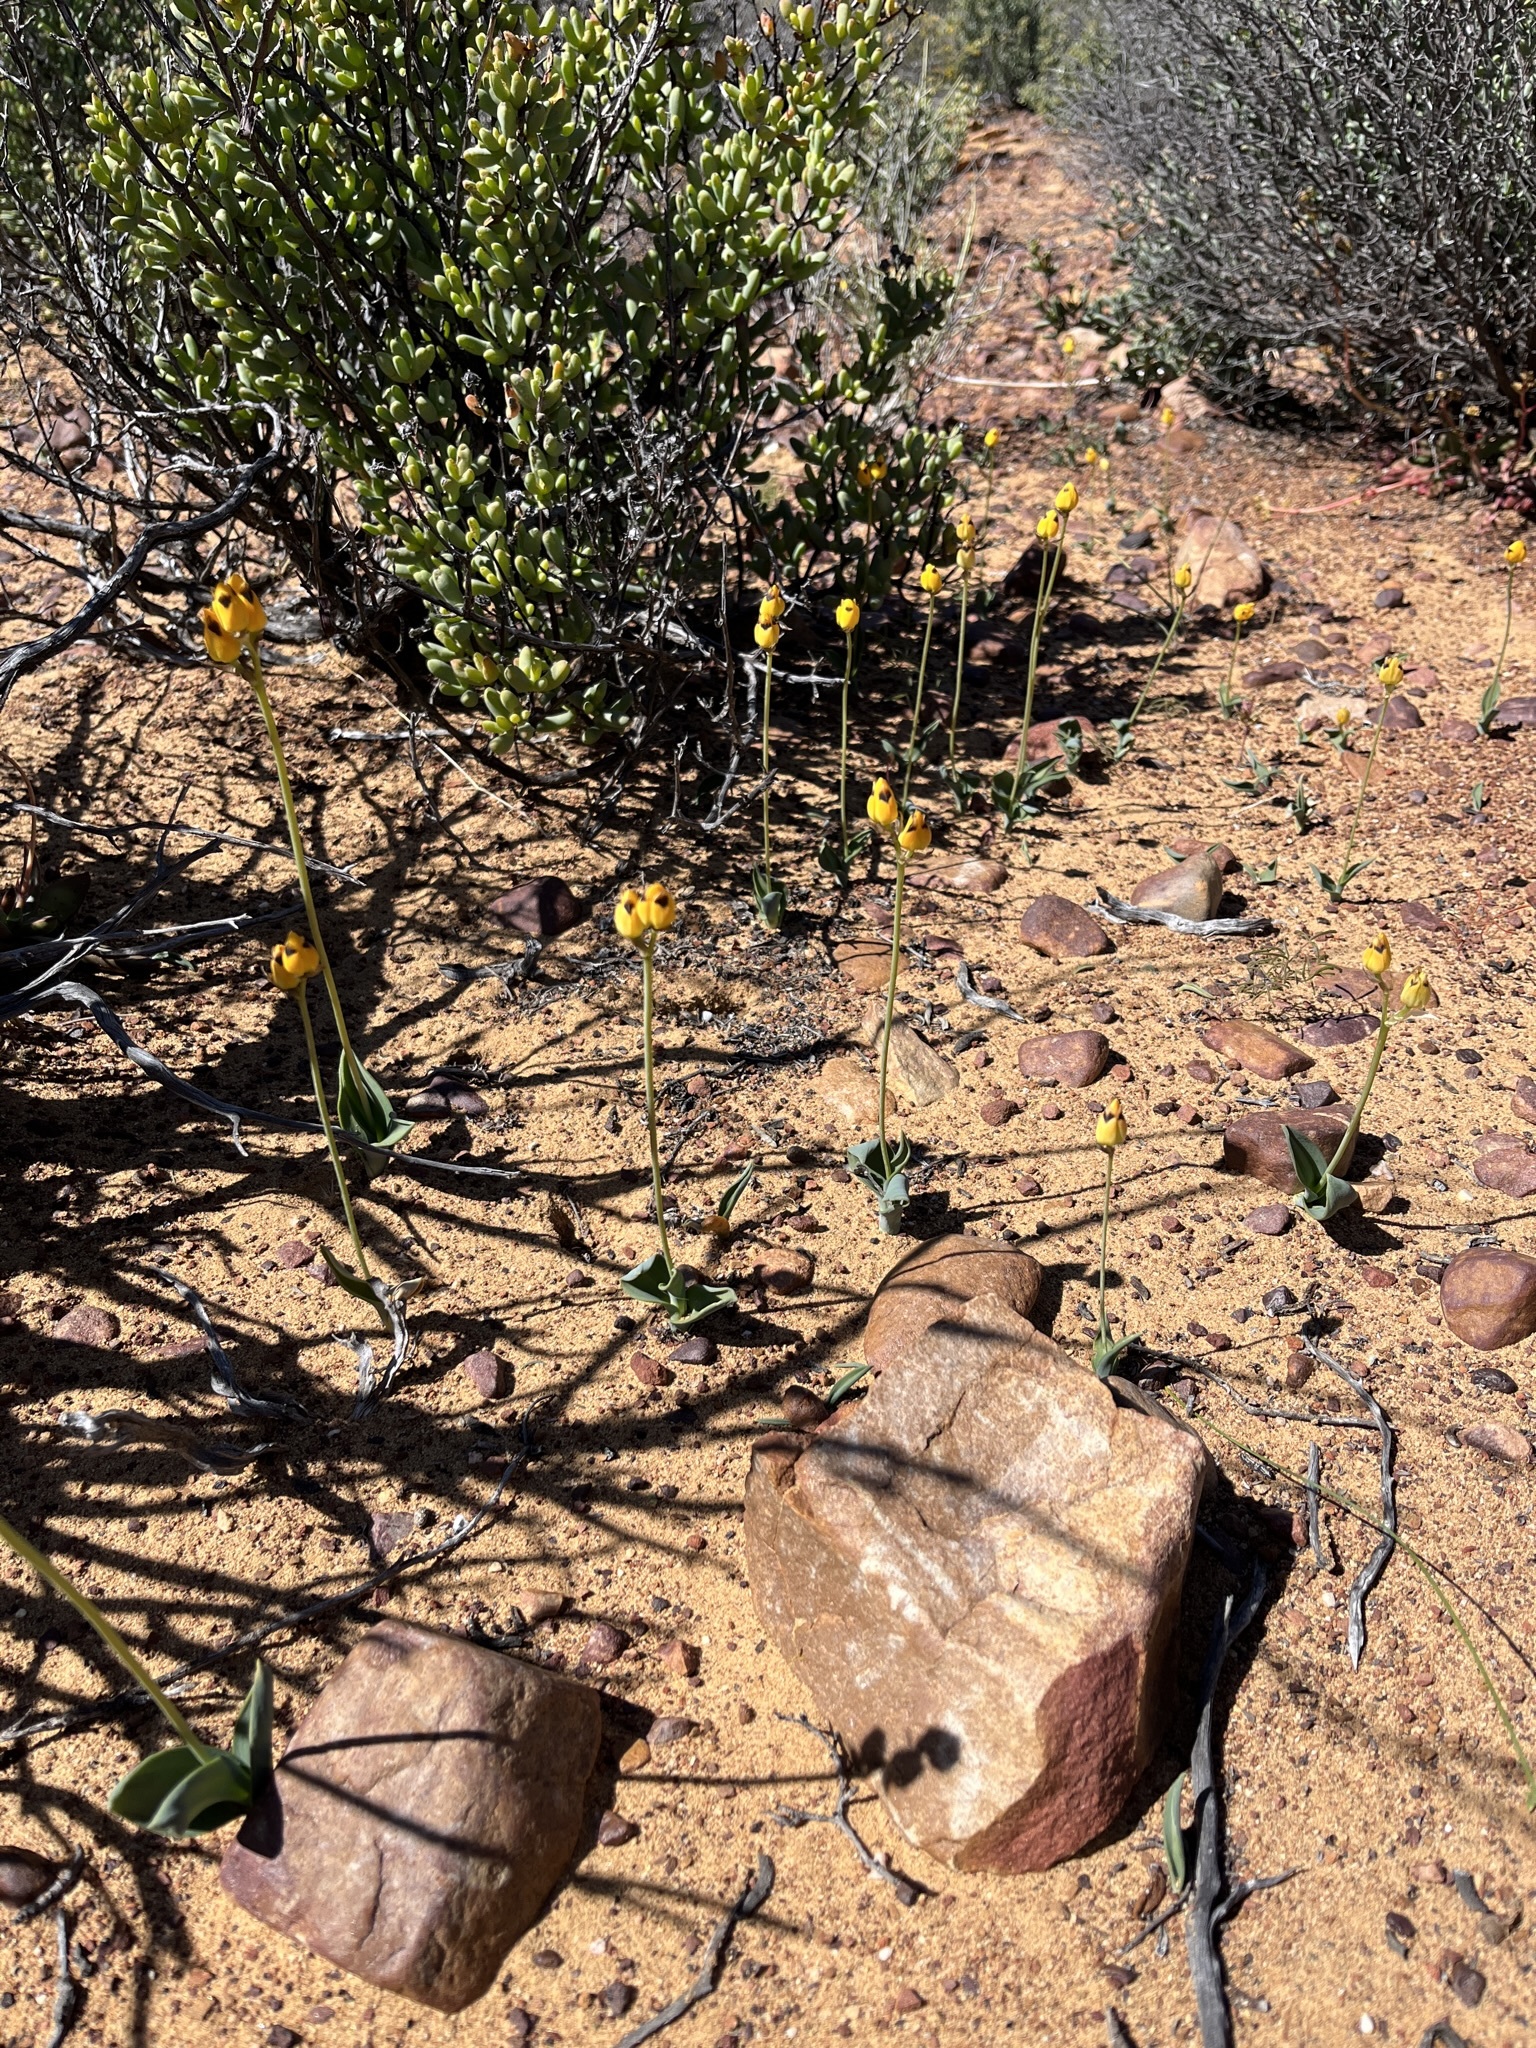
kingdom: Plantae
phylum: Tracheophyta
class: Liliopsida
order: Asparagales
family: Asparagaceae
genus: Ornithogalum
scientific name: Ornithogalum maculatum
